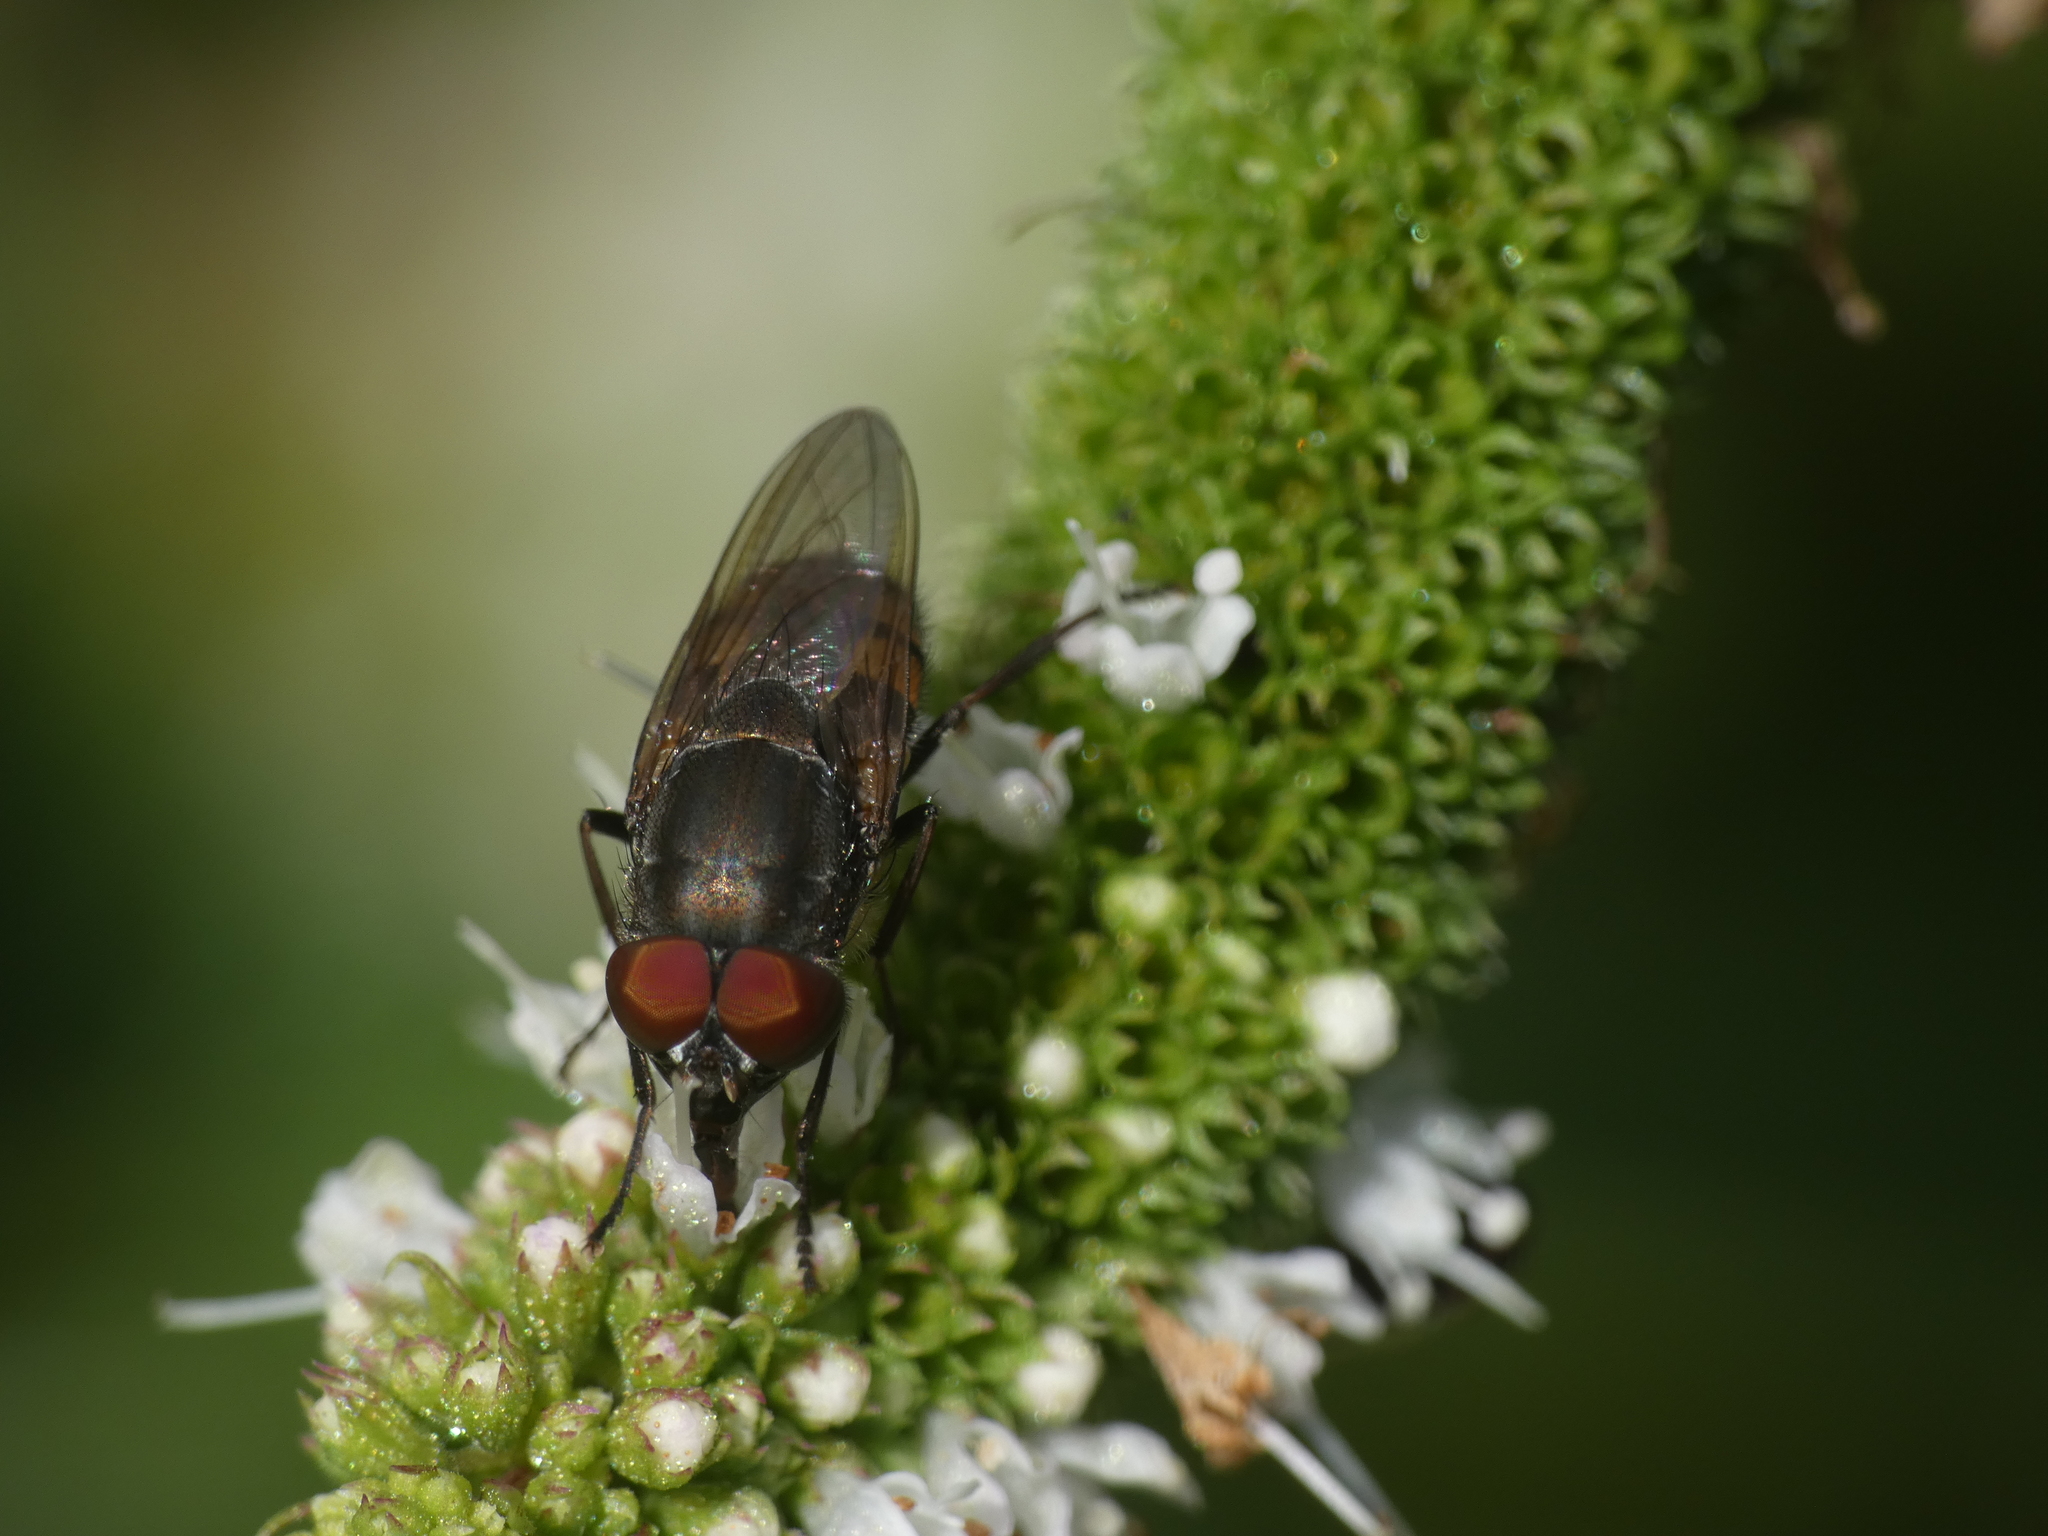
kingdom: Animalia
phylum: Arthropoda
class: Insecta
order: Diptera
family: Calliphoridae
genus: Stomorhina
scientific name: Stomorhina lunata
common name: Locust blowfly
